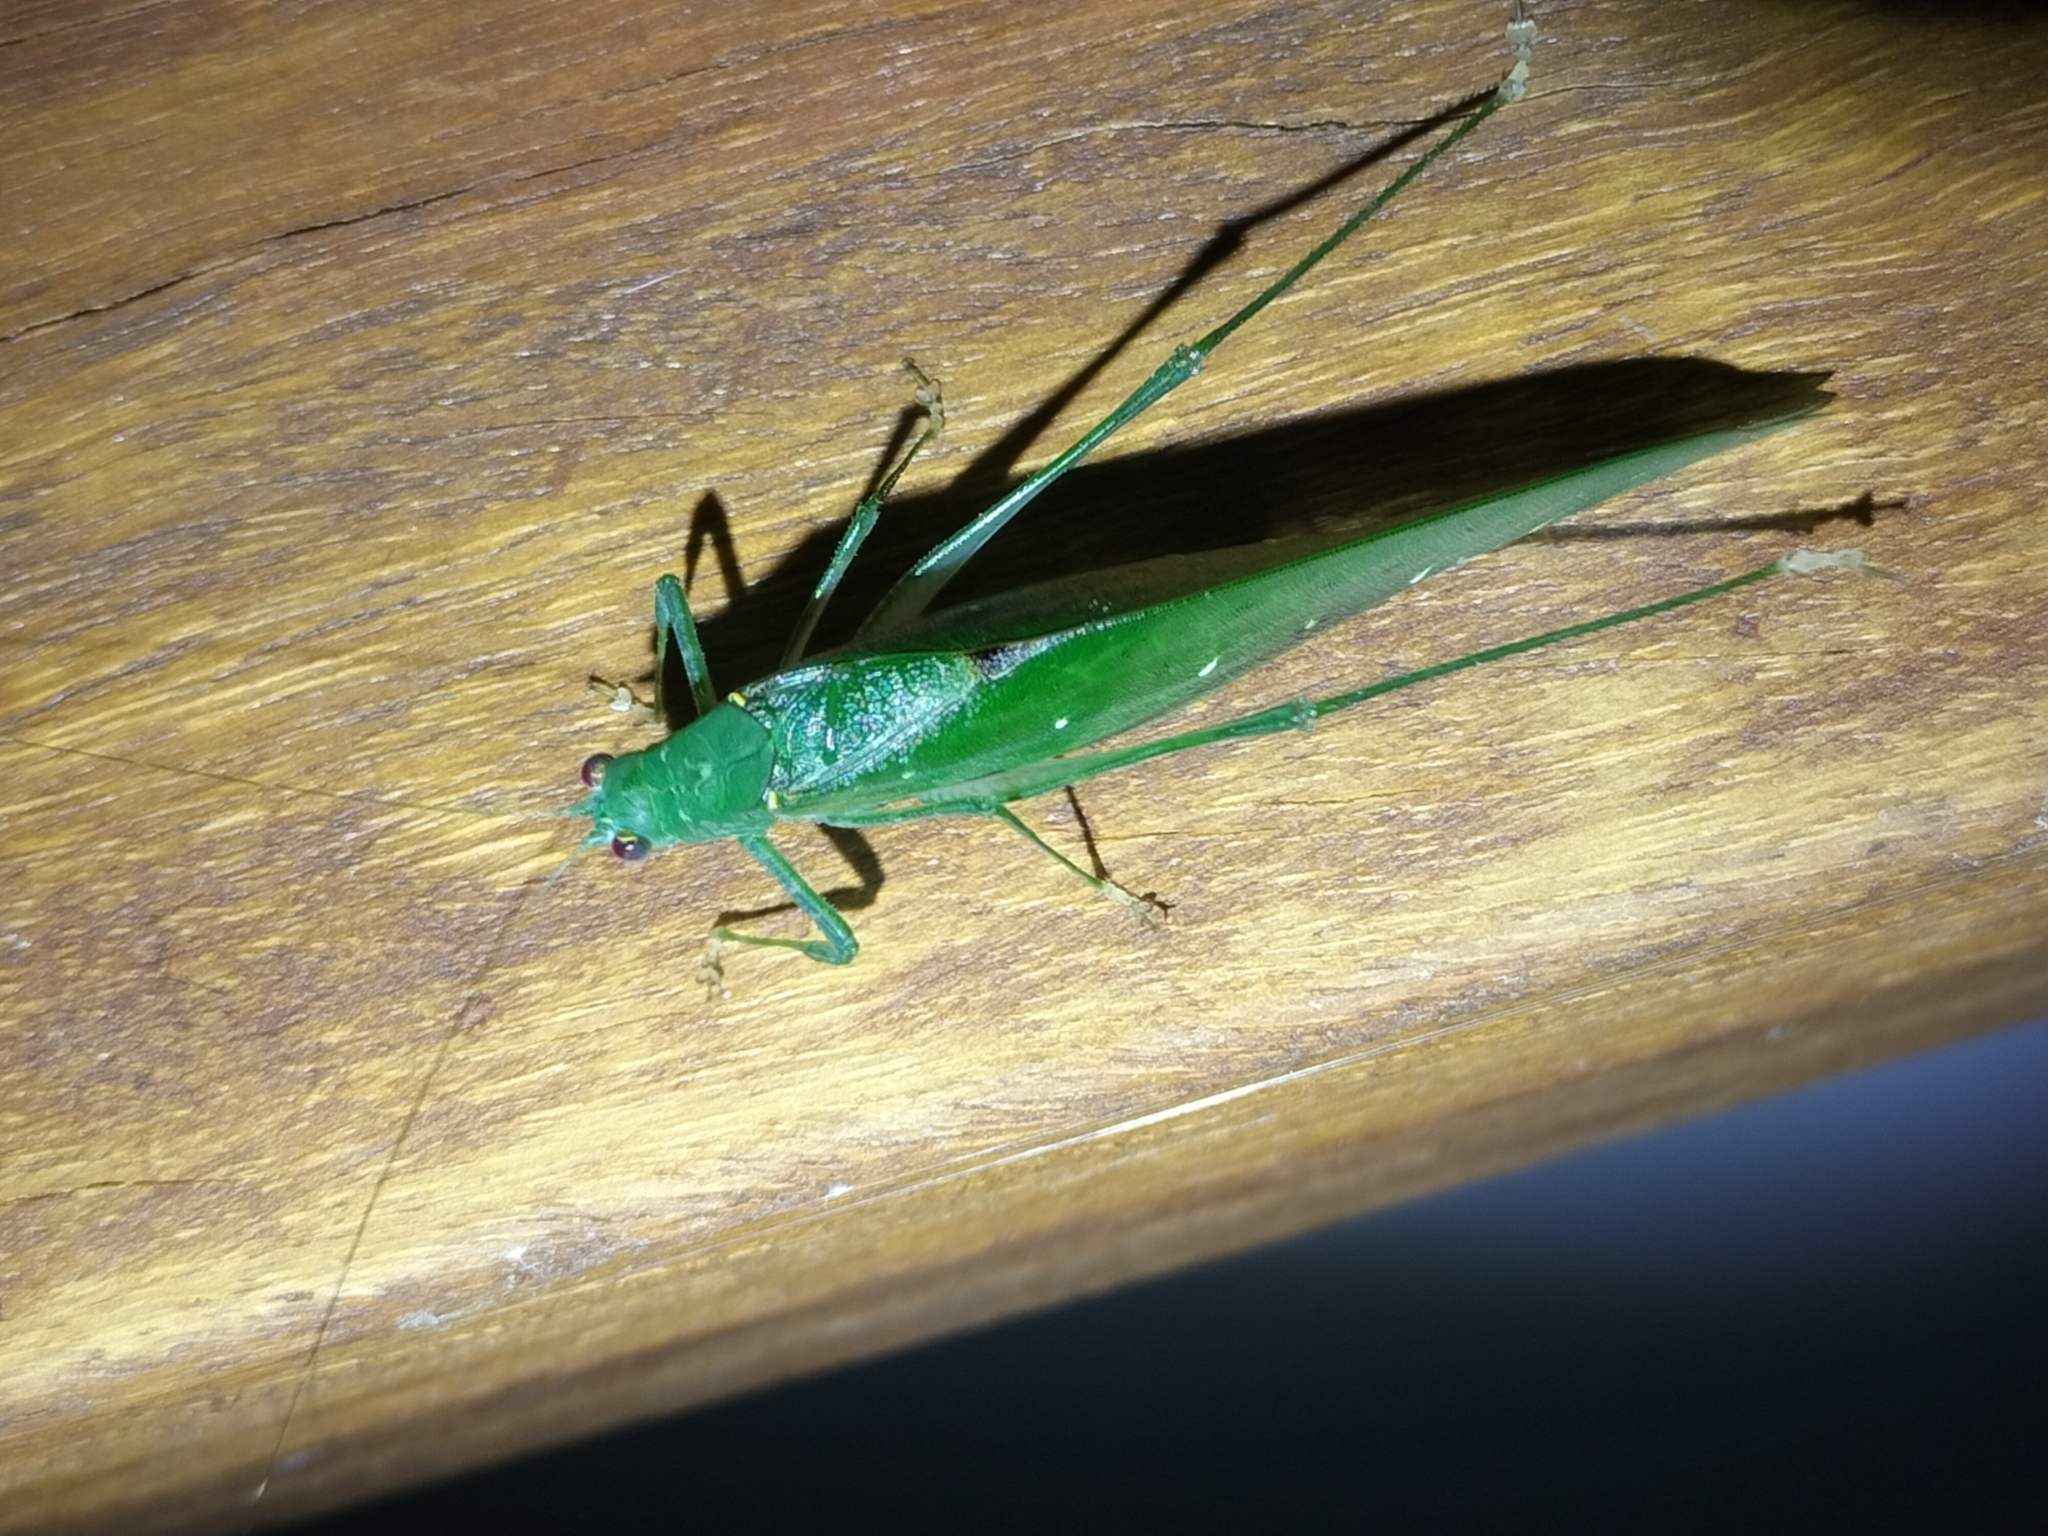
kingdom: Animalia
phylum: Arthropoda
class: Insecta
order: Orthoptera
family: Tettigoniidae
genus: Caedicia
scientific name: Caedicia webberi
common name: Webber's caedicia
